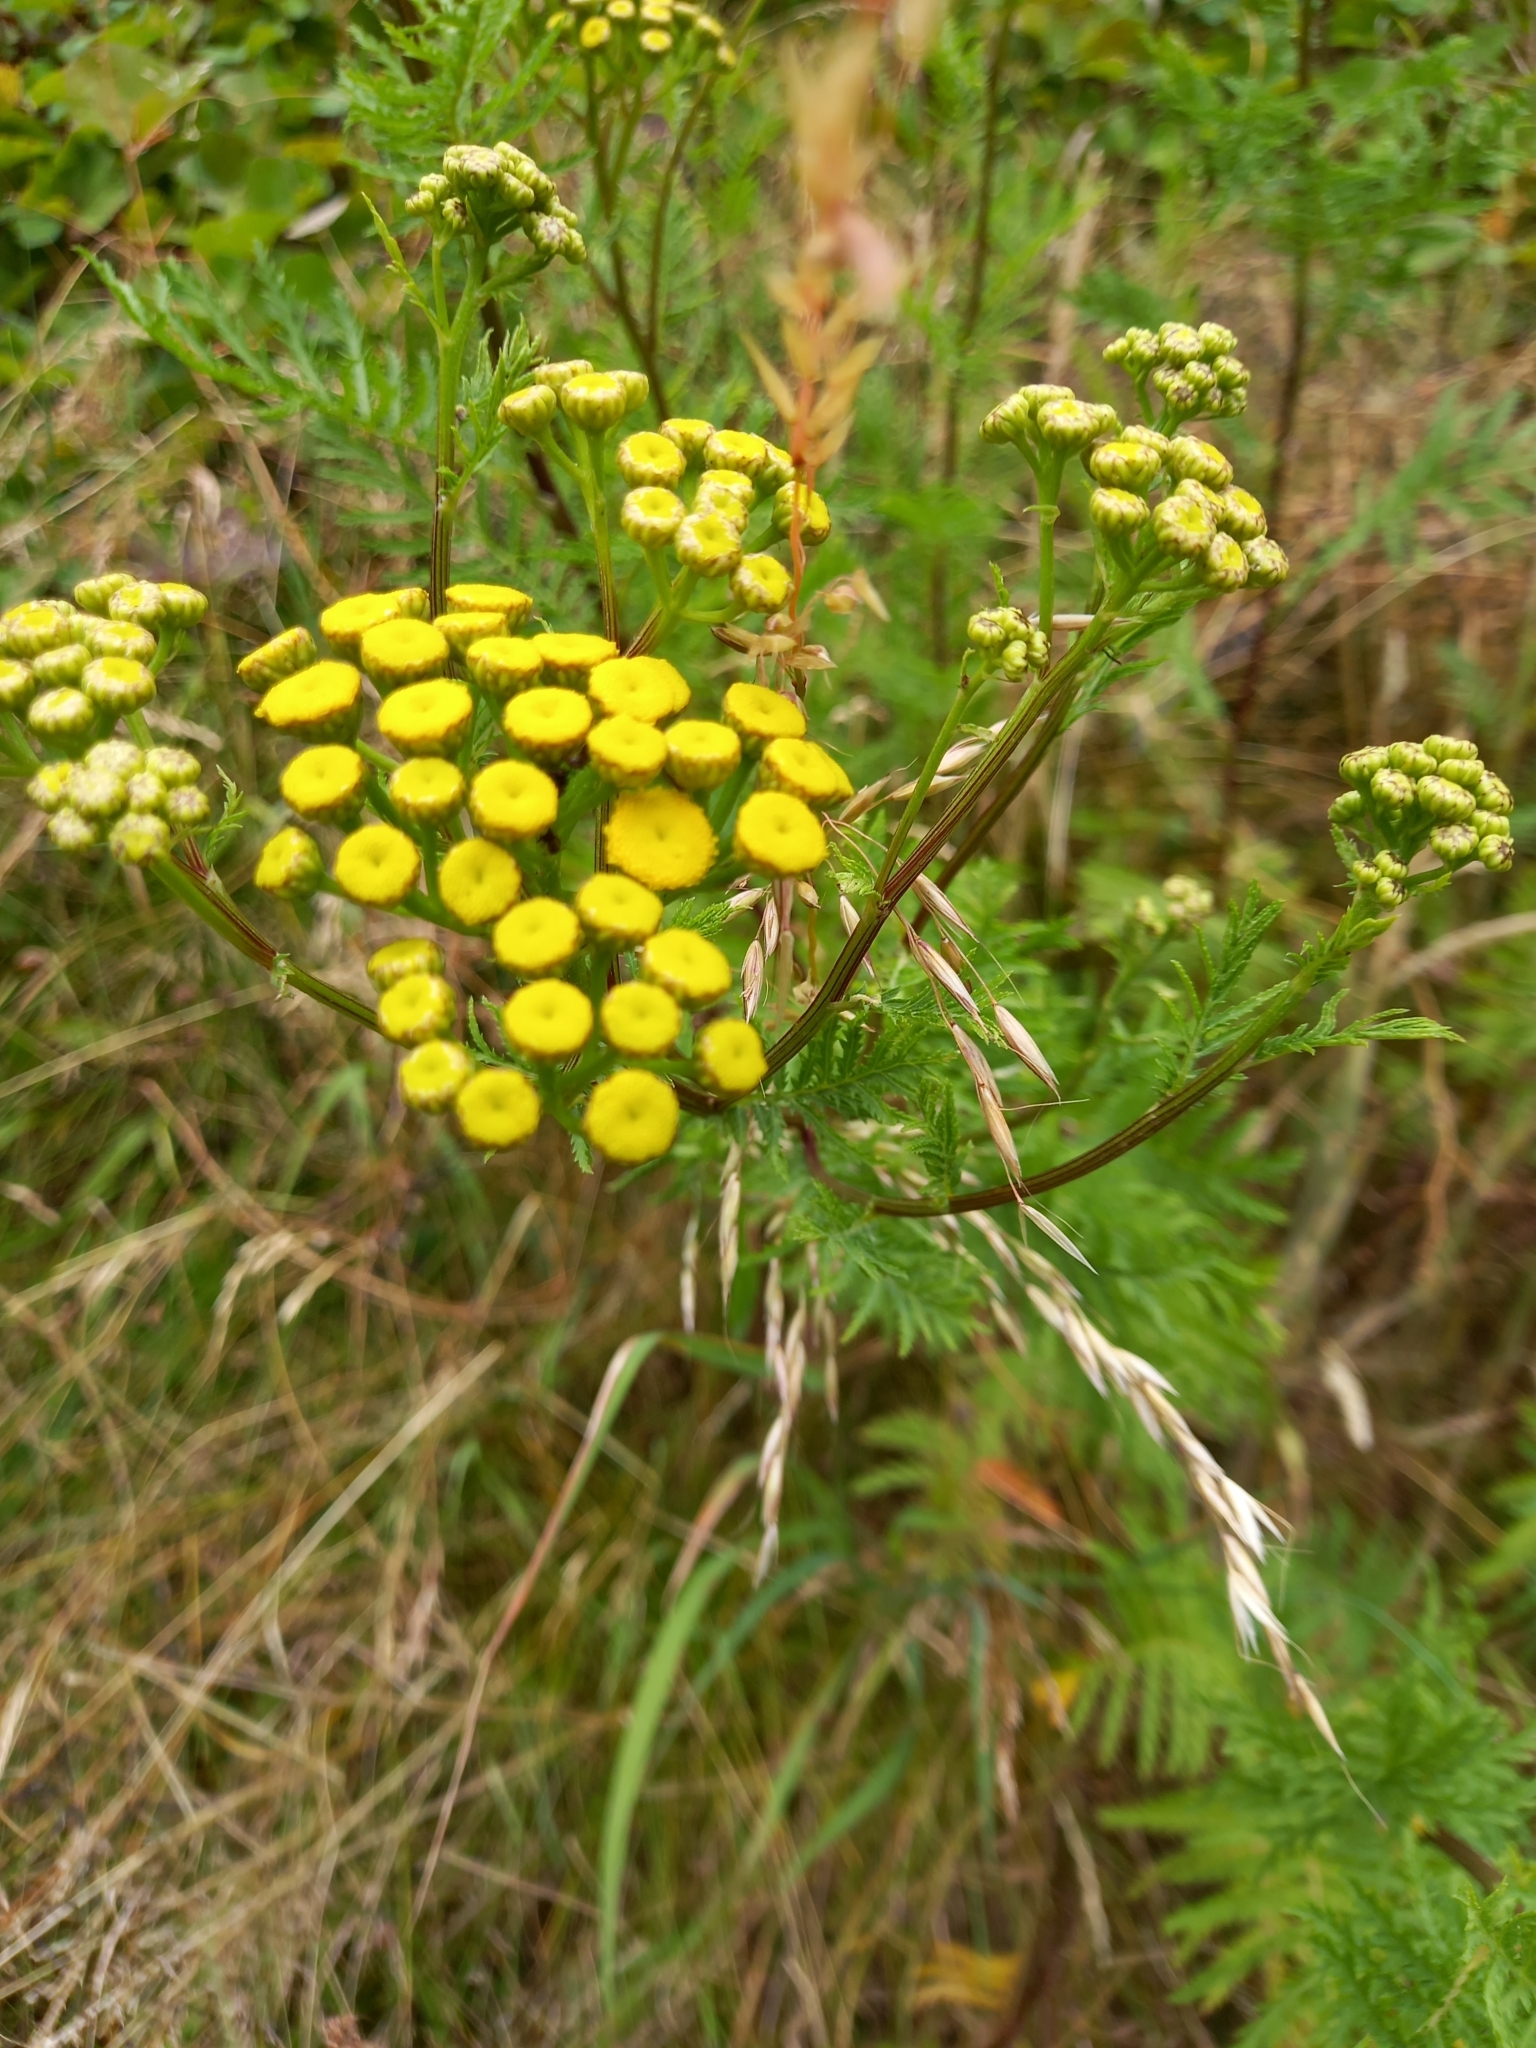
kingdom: Plantae
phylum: Tracheophyta
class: Magnoliopsida
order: Asterales
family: Asteraceae
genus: Tanacetum
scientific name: Tanacetum vulgare
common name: Common tansy
